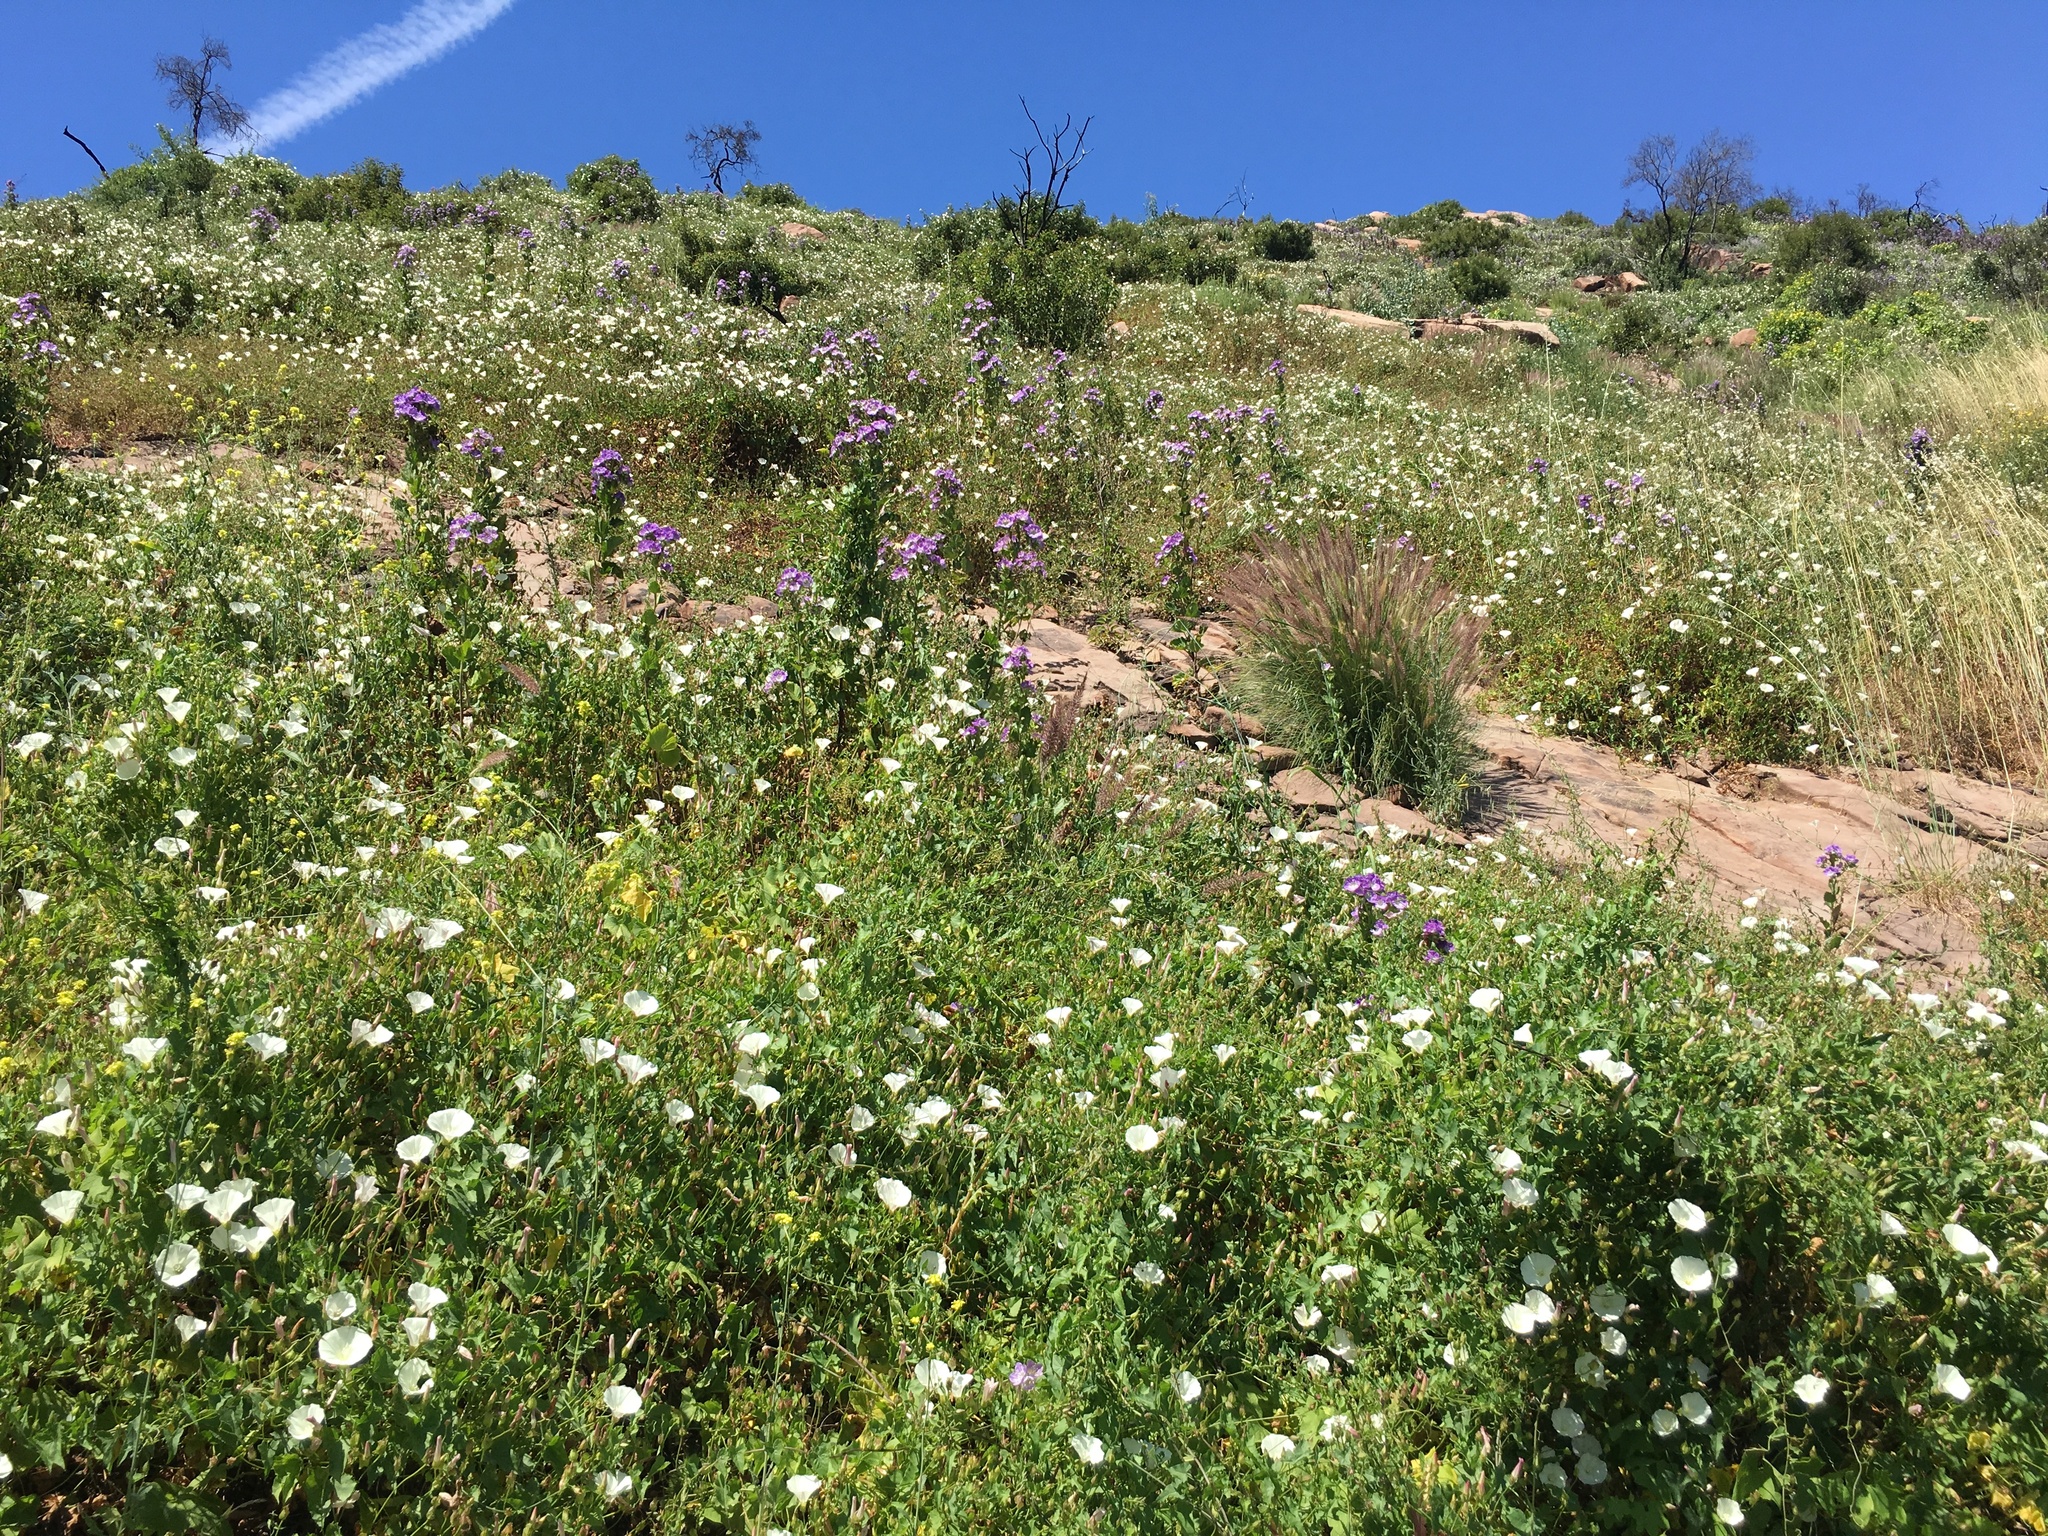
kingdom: Plantae
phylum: Tracheophyta
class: Liliopsida
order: Poales
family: Poaceae
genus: Cenchrus
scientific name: Cenchrus setaceus
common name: Crimson fountaingrass
